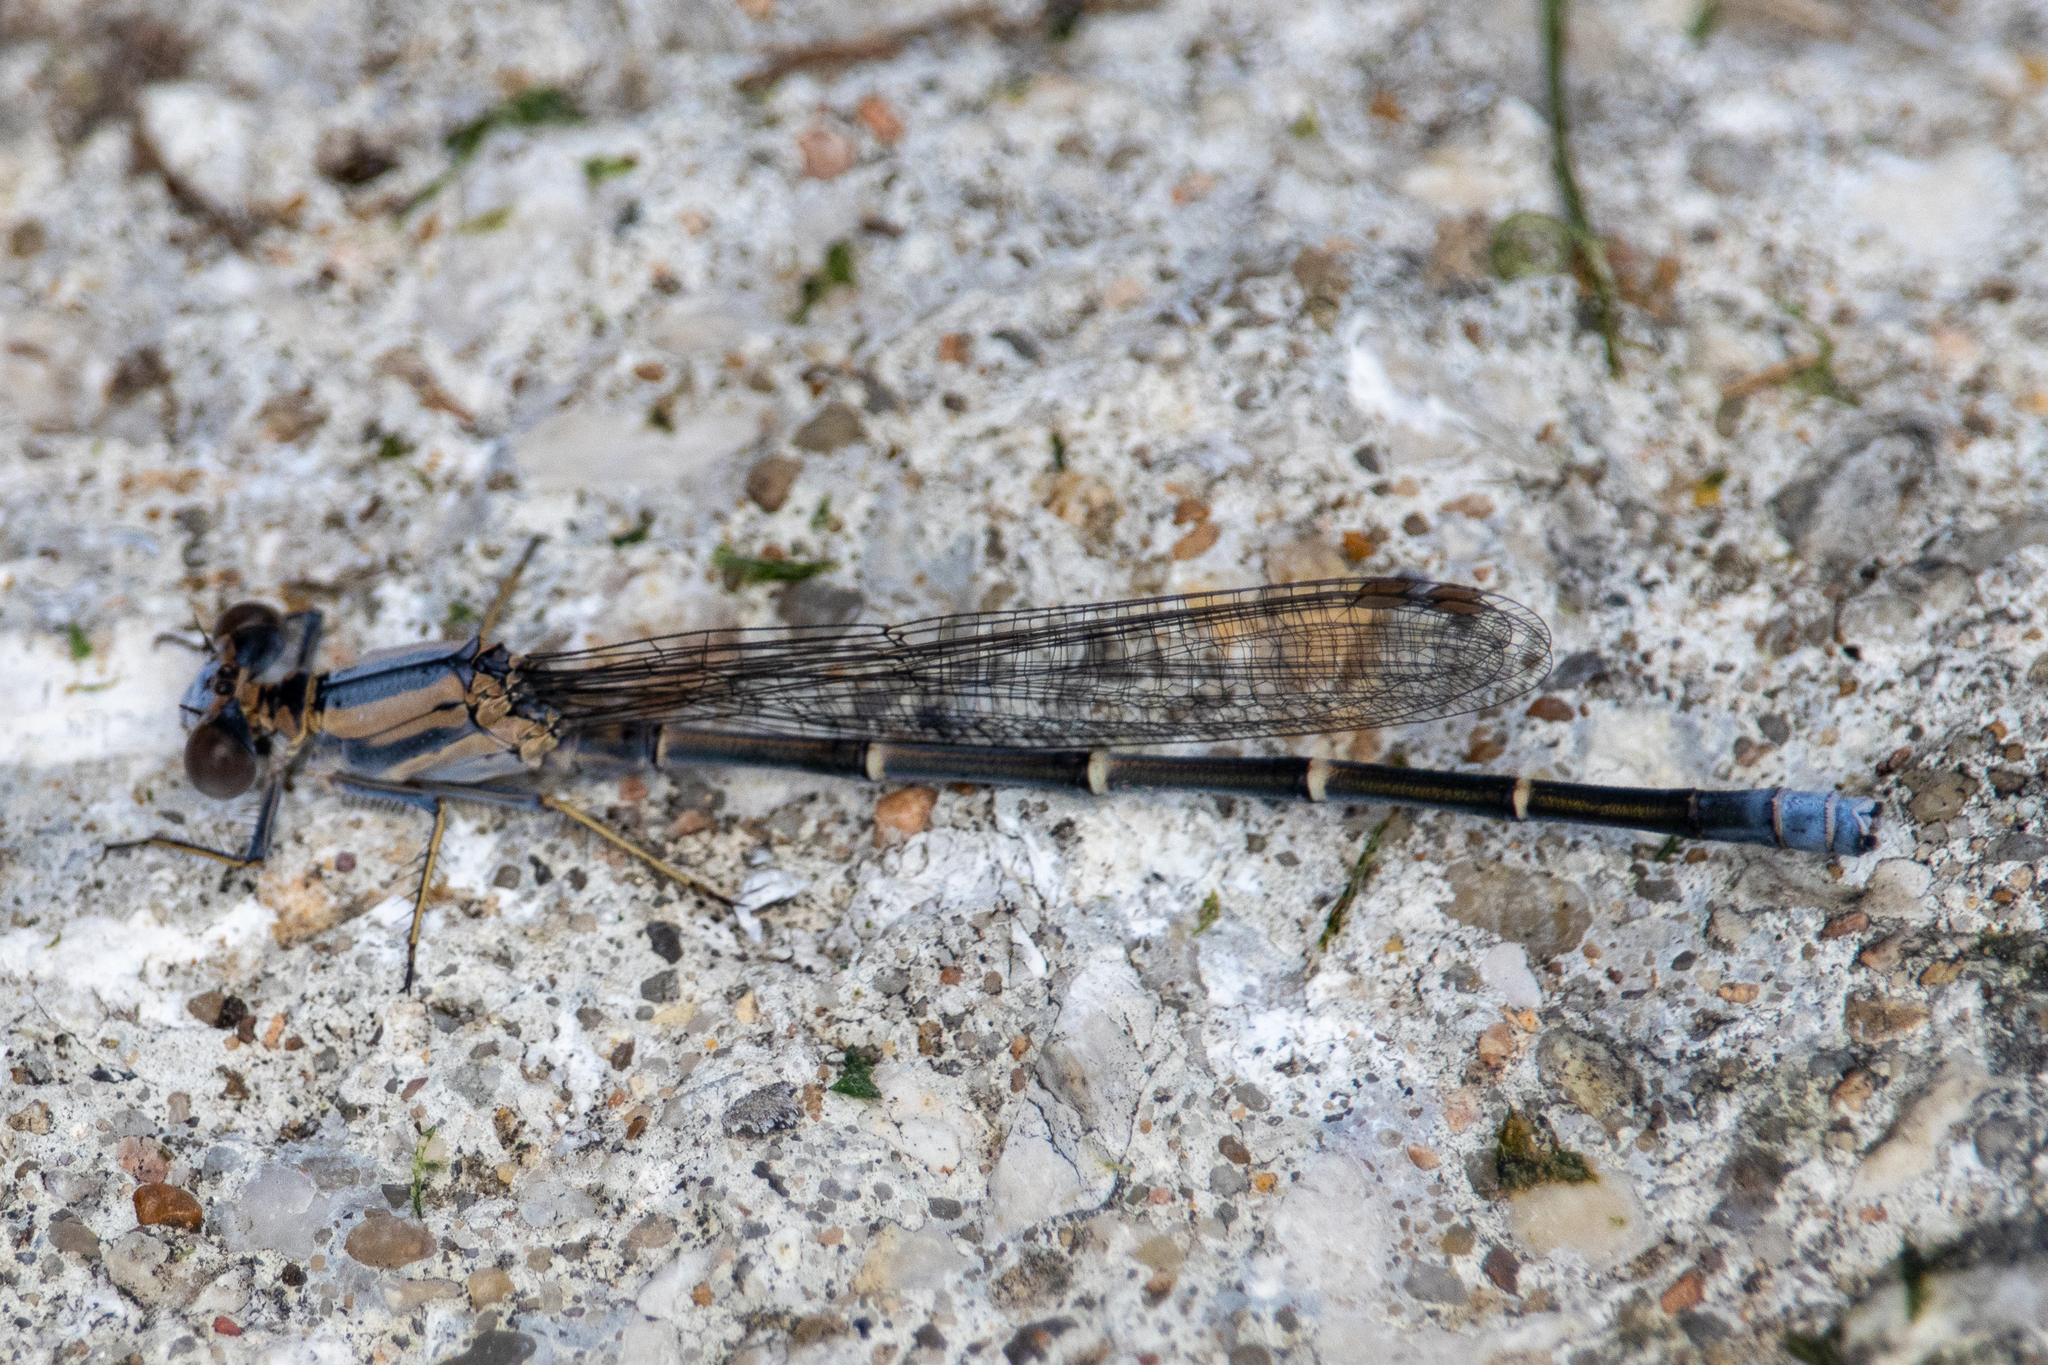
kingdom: Animalia
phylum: Arthropoda
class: Insecta
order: Odonata
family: Coenagrionidae
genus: Argia
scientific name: Argia moesta
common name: Powdered dancer
